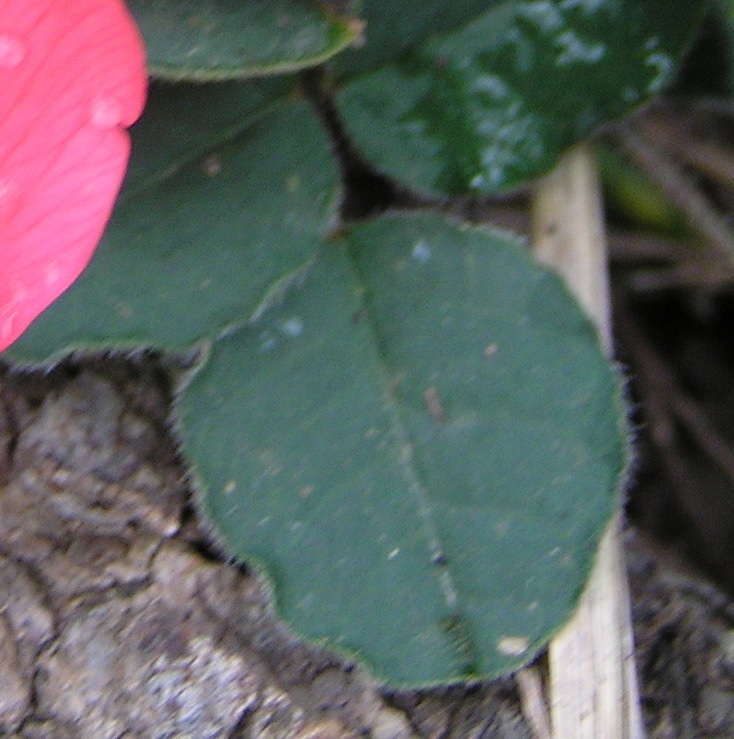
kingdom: Plantae
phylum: Tracheophyta
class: Magnoliopsida
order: Fabales
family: Fabaceae
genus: Kennedia
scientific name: Kennedia prostrata
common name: Running-postman
